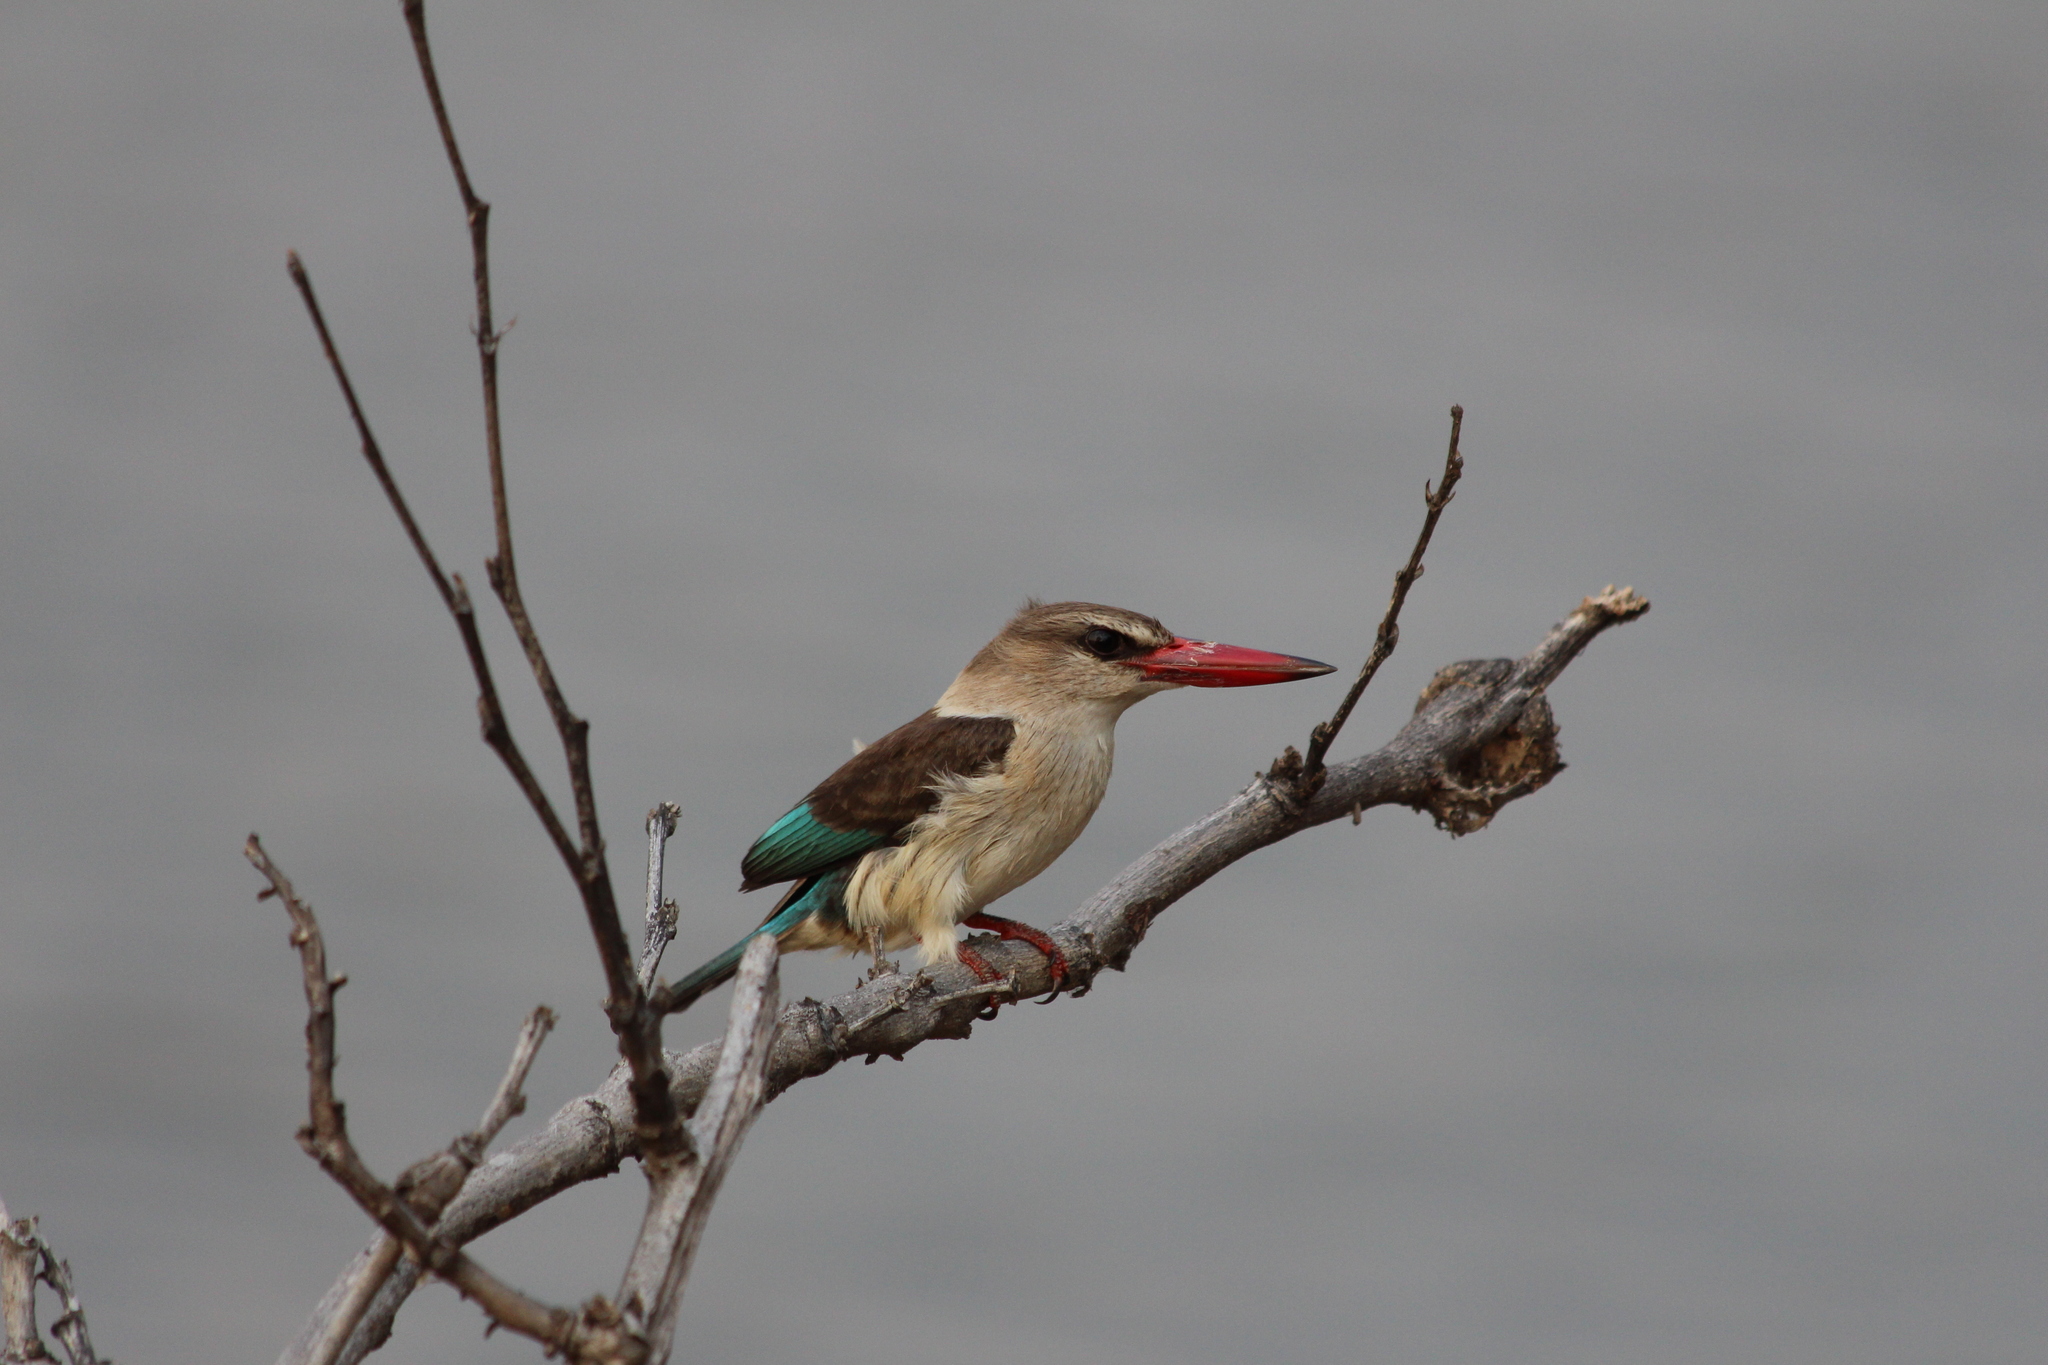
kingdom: Animalia
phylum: Chordata
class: Aves
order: Coraciiformes
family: Alcedinidae
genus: Halcyon
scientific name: Halcyon albiventris
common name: Brown-hooded kingfisher
